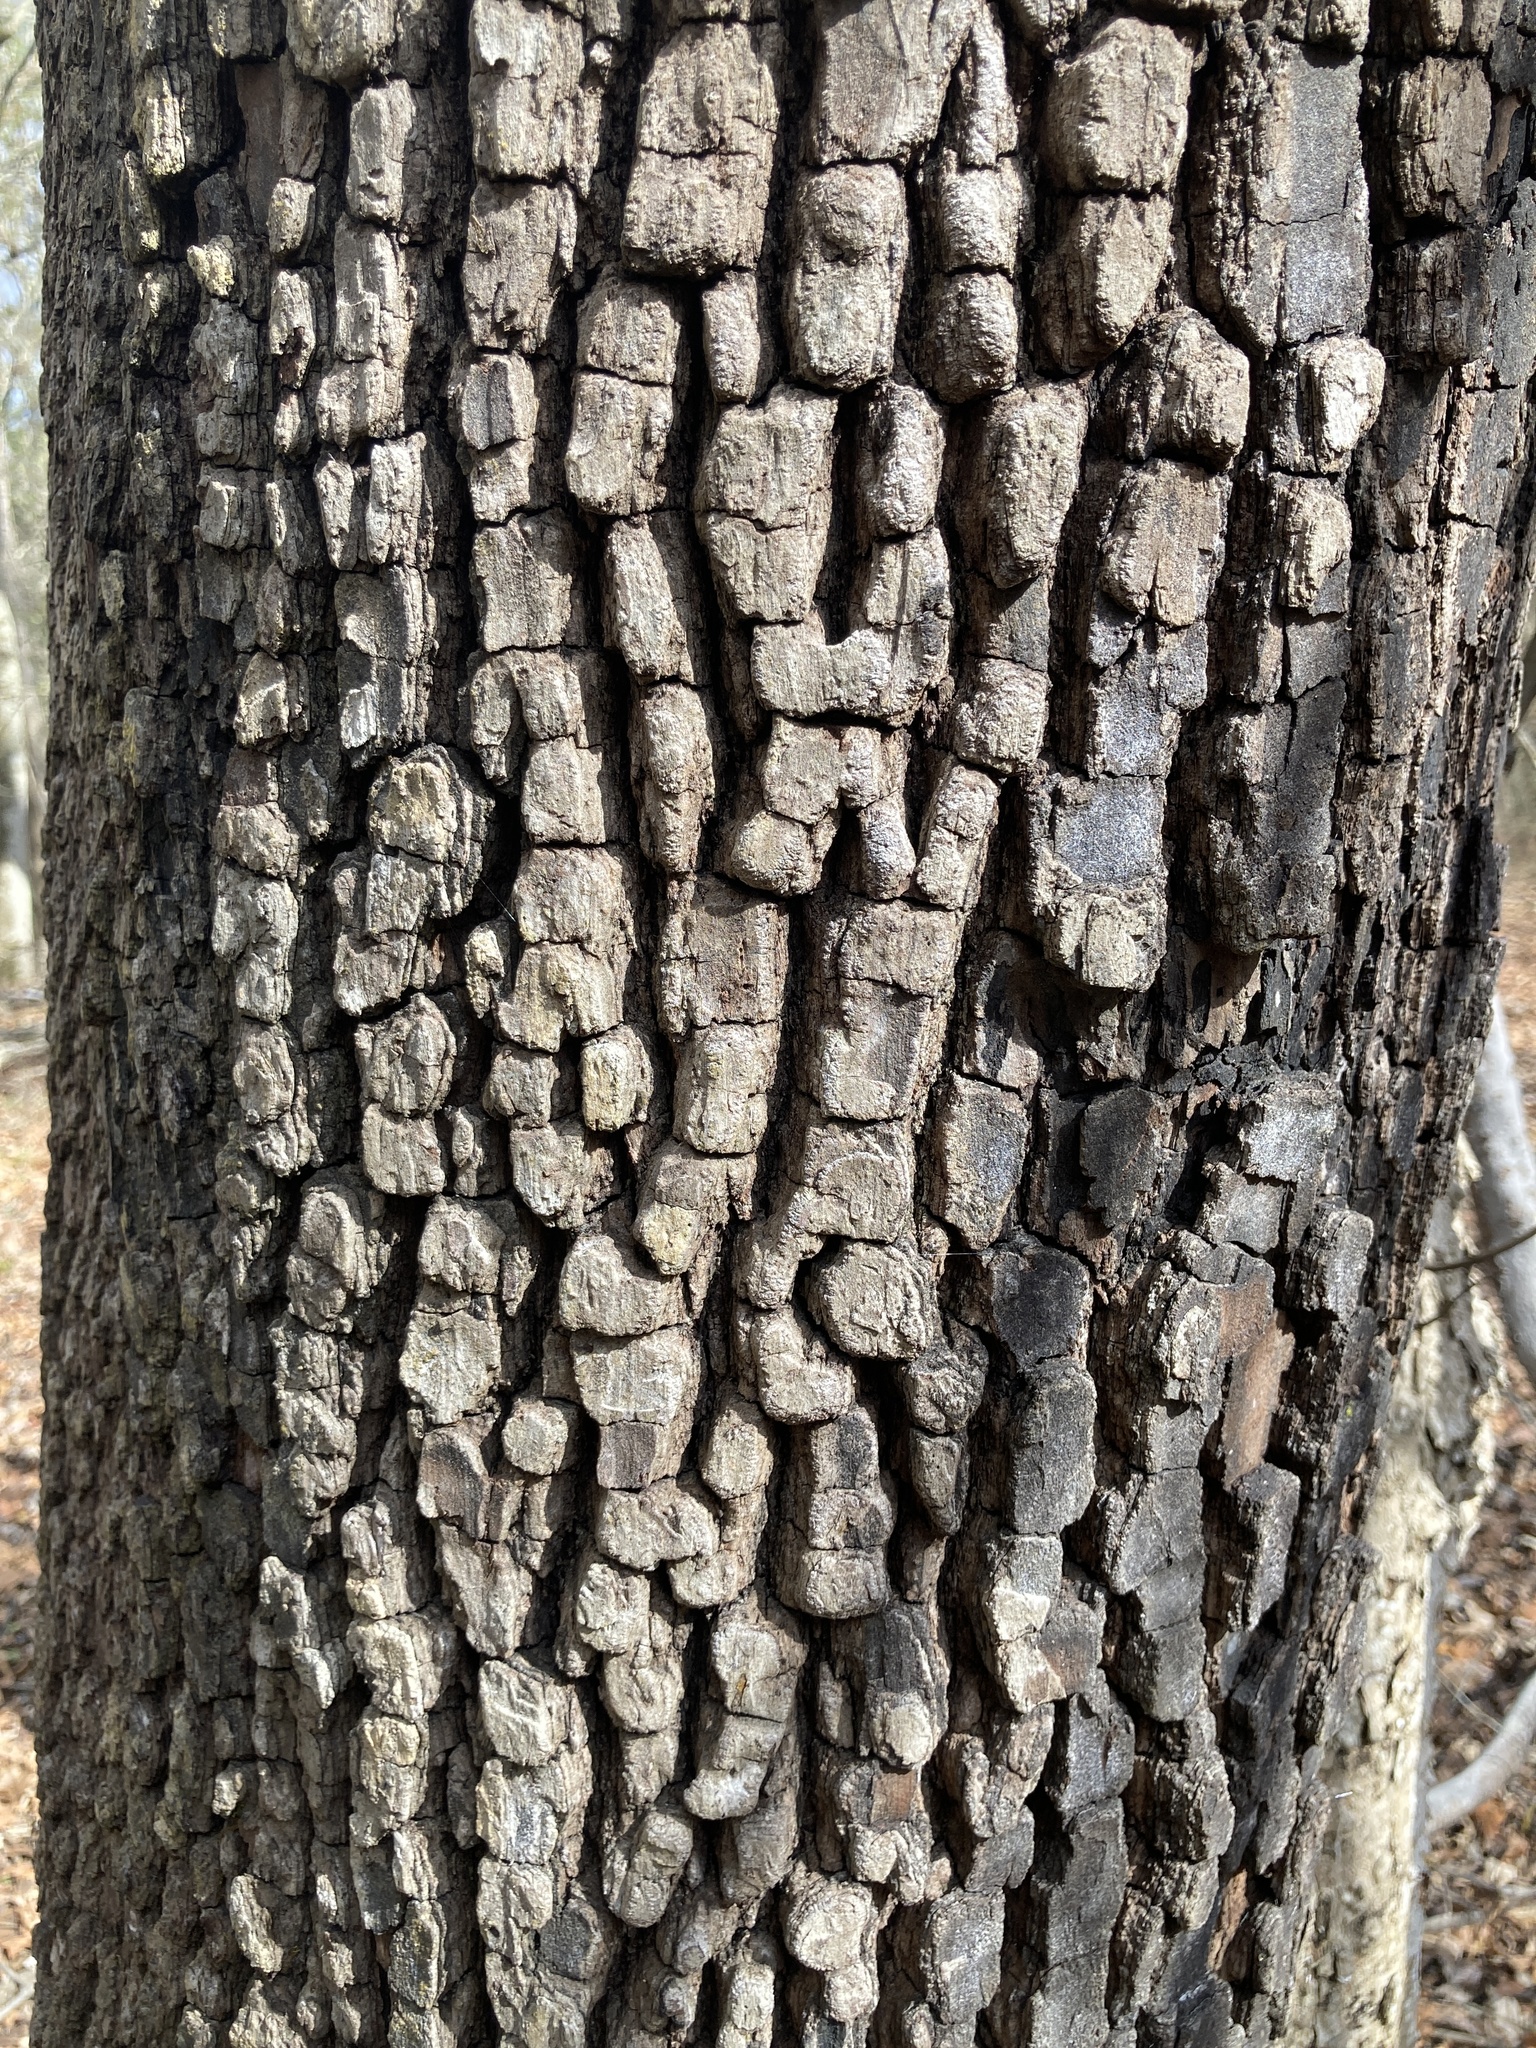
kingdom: Plantae
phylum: Tracheophyta
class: Magnoliopsida
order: Ericales
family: Ebenaceae
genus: Diospyros
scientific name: Diospyros virginiana
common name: Persimmon
